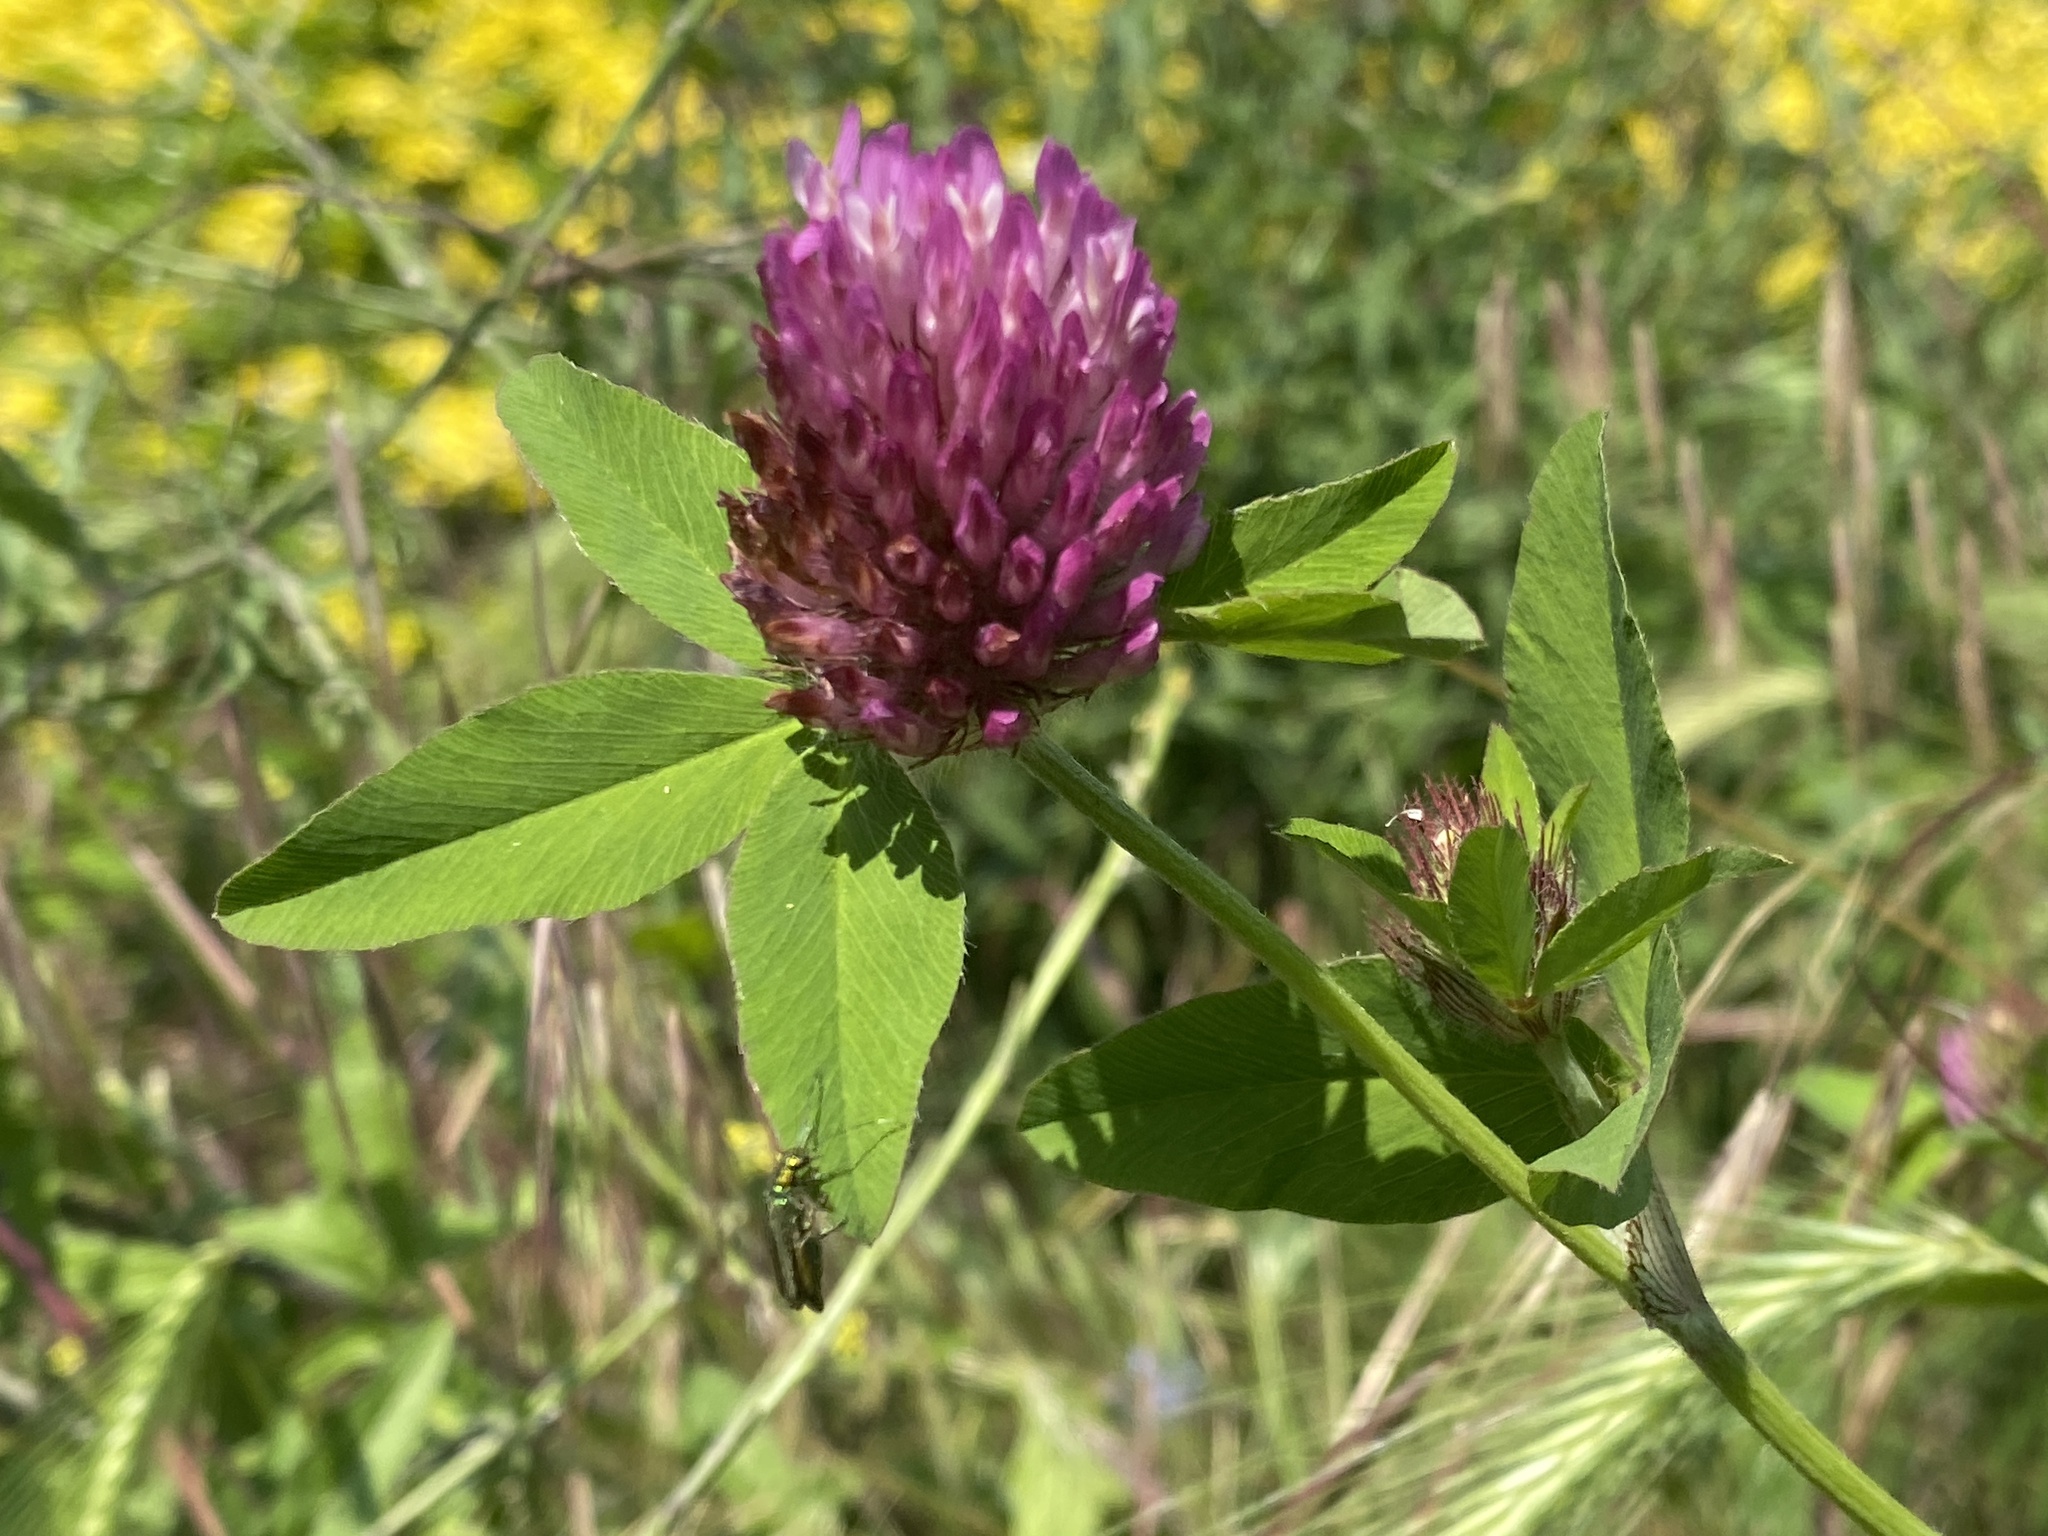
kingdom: Plantae
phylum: Tracheophyta
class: Magnoliopsida
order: Fabales
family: Fabaceae
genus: Trifolium
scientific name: Trifolium pratense
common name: Red clover
